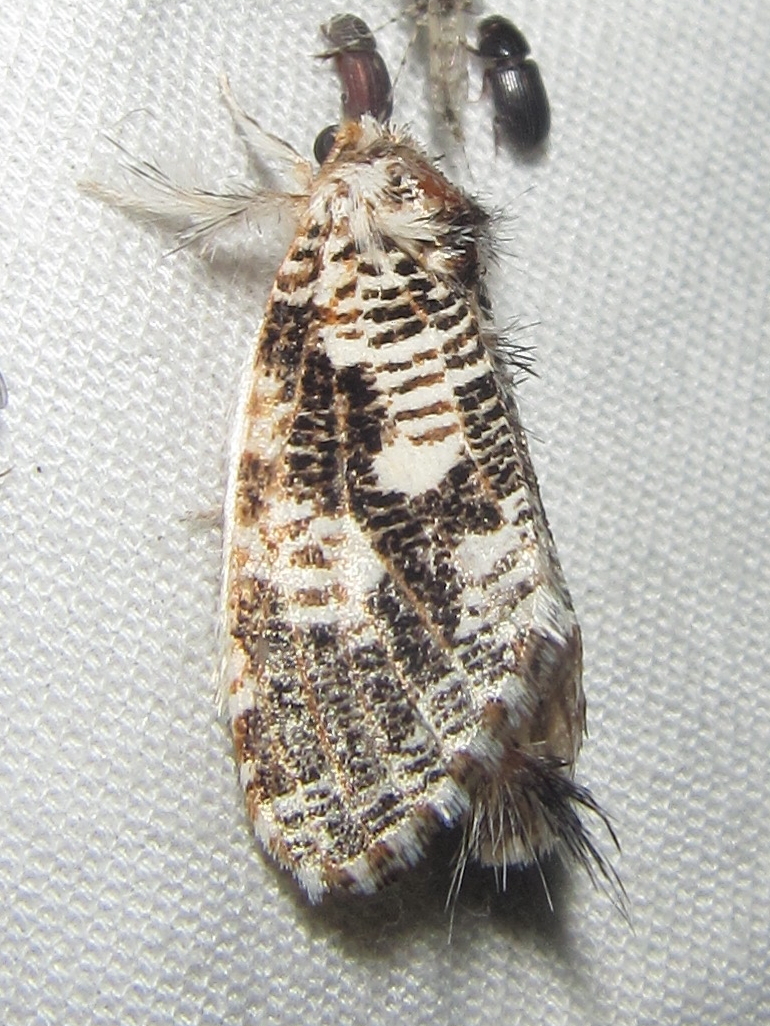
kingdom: Animalia
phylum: Arthropoda
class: Insecta
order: Lepidoptera
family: Metarbelidae
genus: Salagena
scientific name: Salagena tessellata
